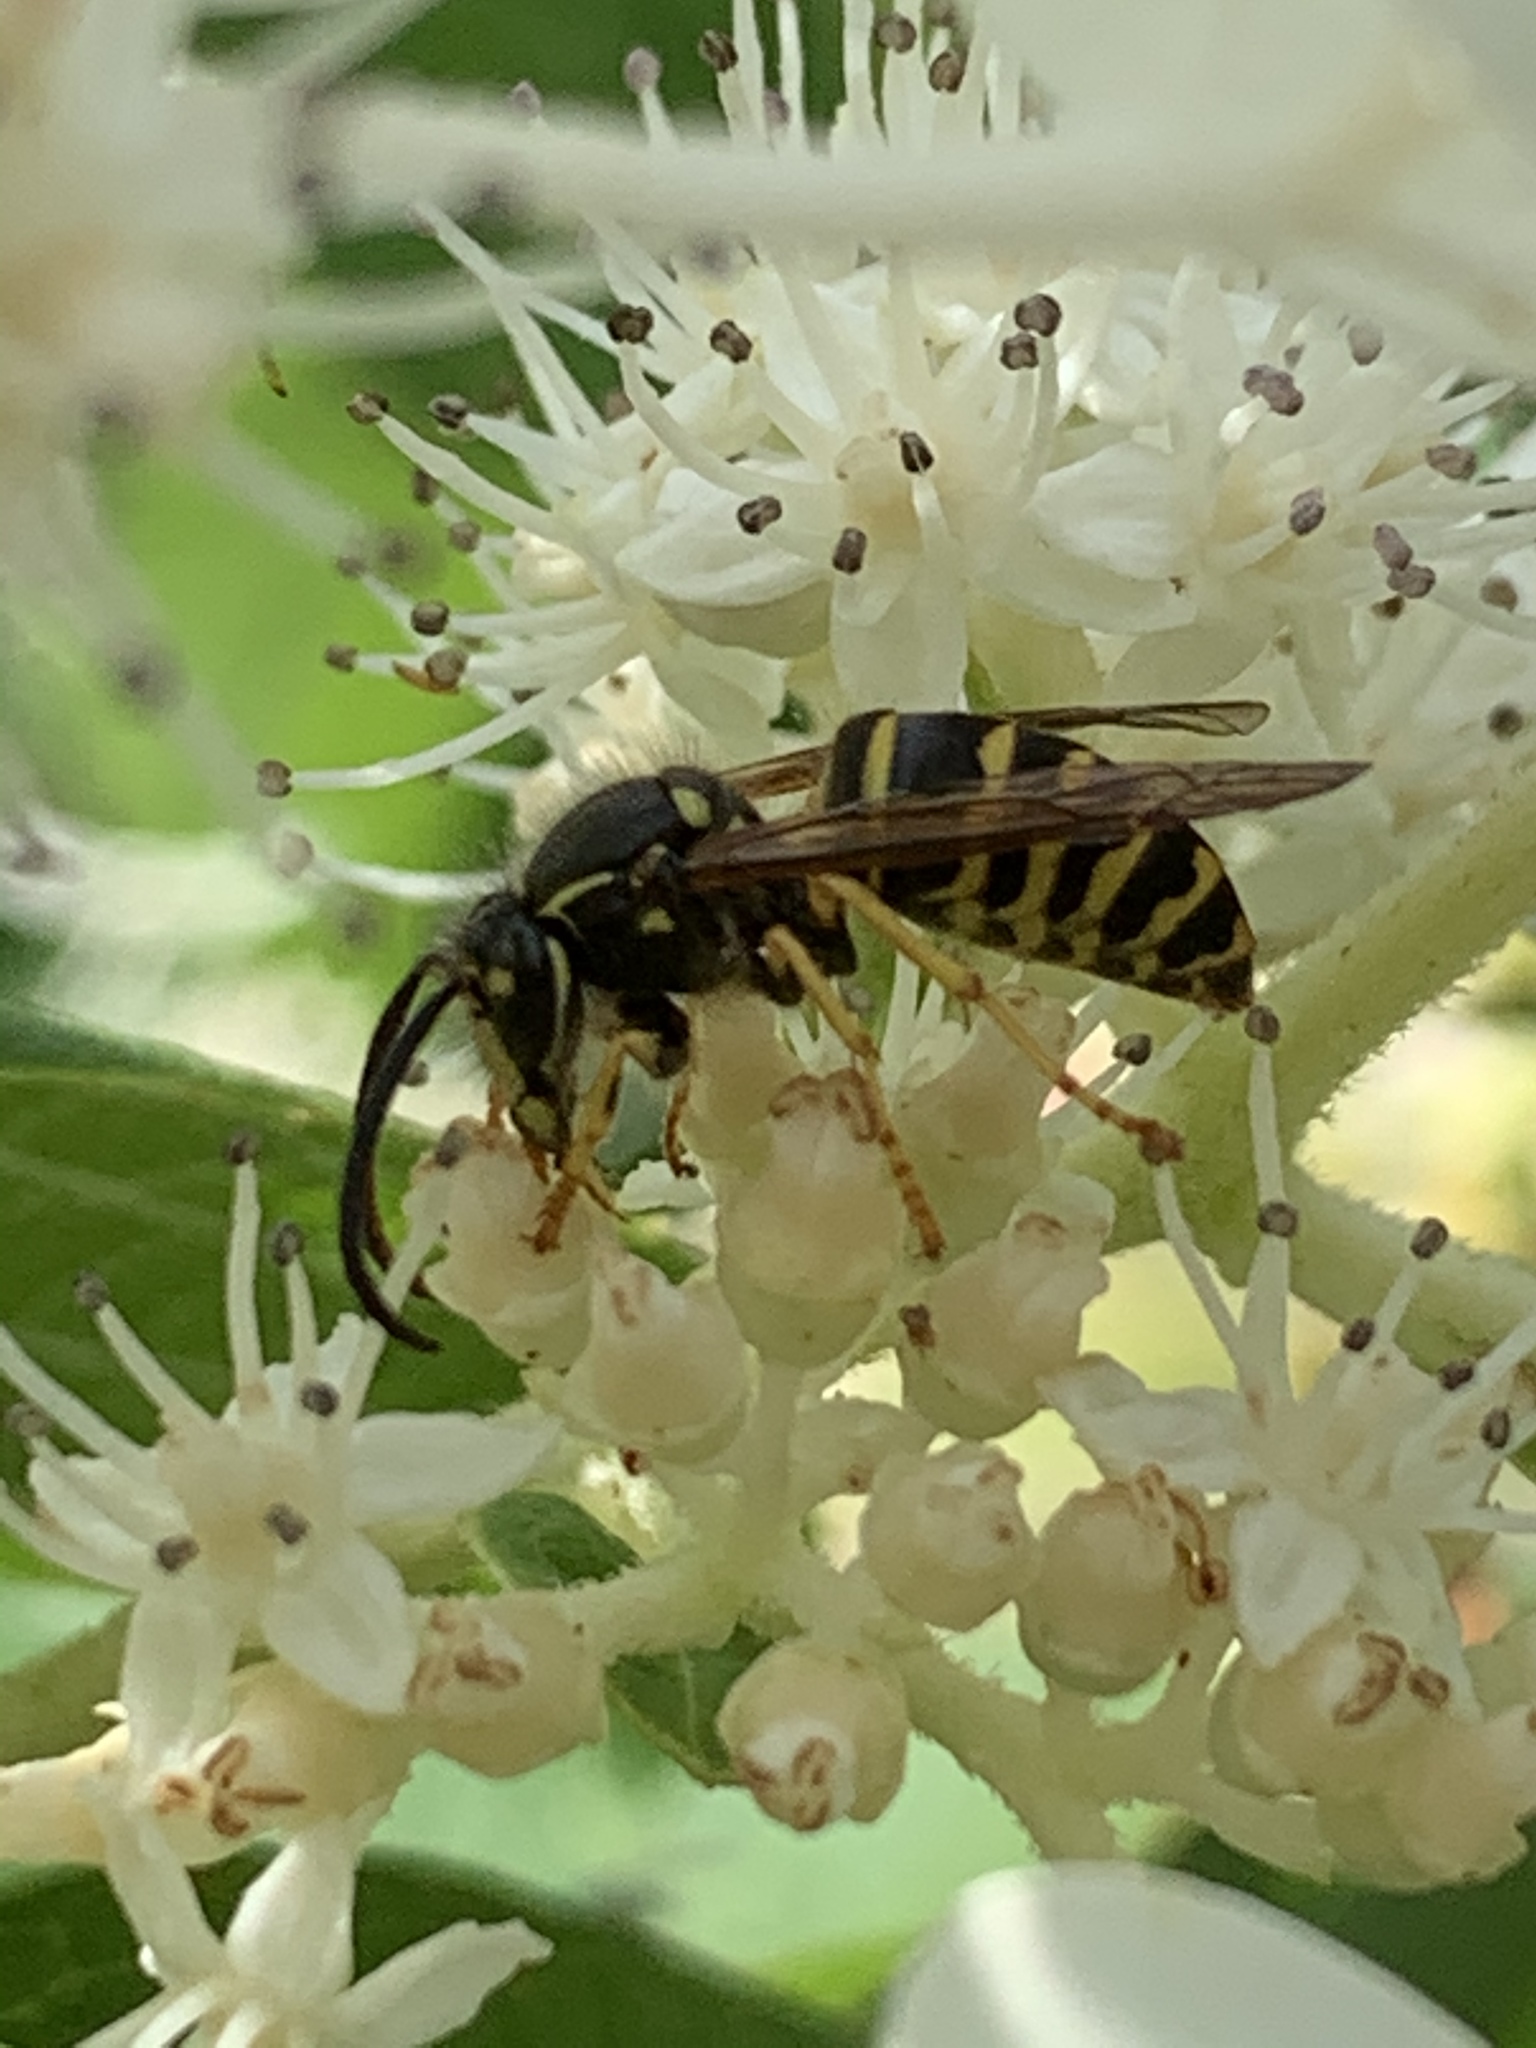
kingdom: Animalia
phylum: Arthropoda
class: Insecta
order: Hymenoptera
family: Vespidae
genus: Dolichovespula
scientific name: Dolichovespula arenaria
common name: Aerial yellowjacket
